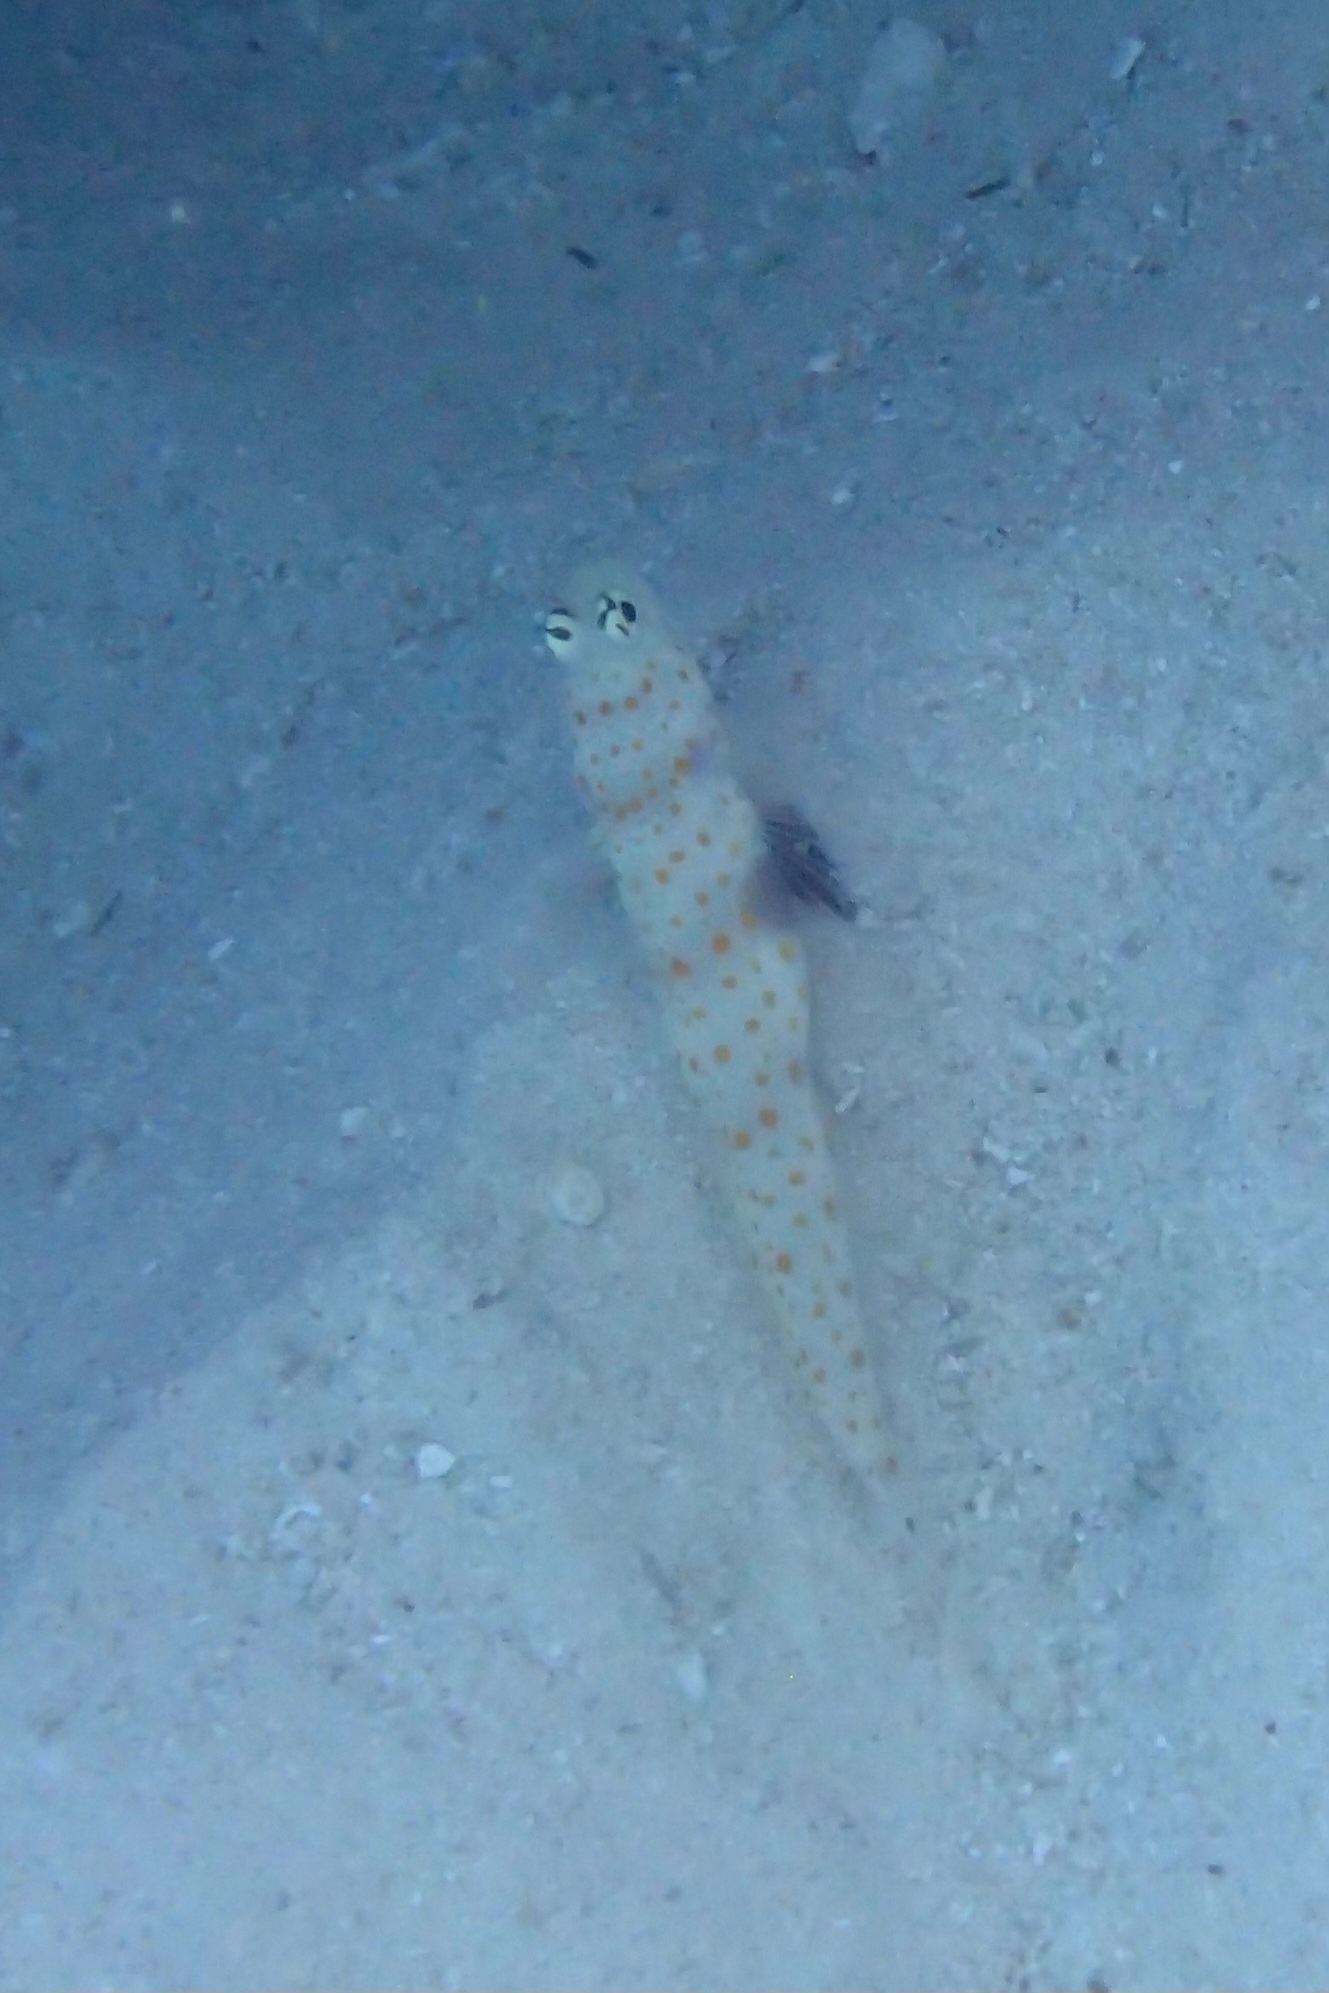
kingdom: Animalia
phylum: Chordata
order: Perciformes
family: Gobiidae
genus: Amblyeleotris
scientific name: Amblyeleotris guttata
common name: Black-chest shrimp-goby
